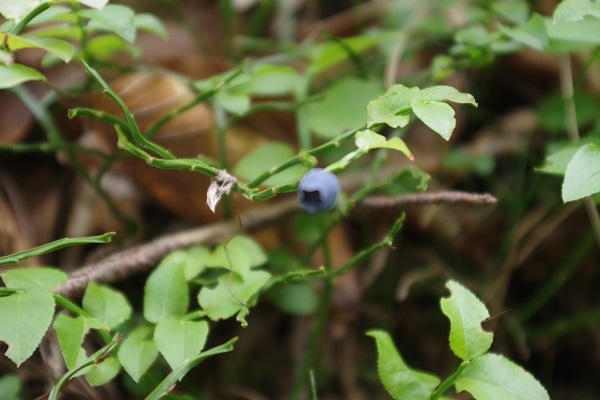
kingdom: Plantae
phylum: Tracheophyta
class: Magnoliopsida
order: Ericales
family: Ericaceae
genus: Vaccinium
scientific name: Vaccinium myrtillus
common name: Bilberry
